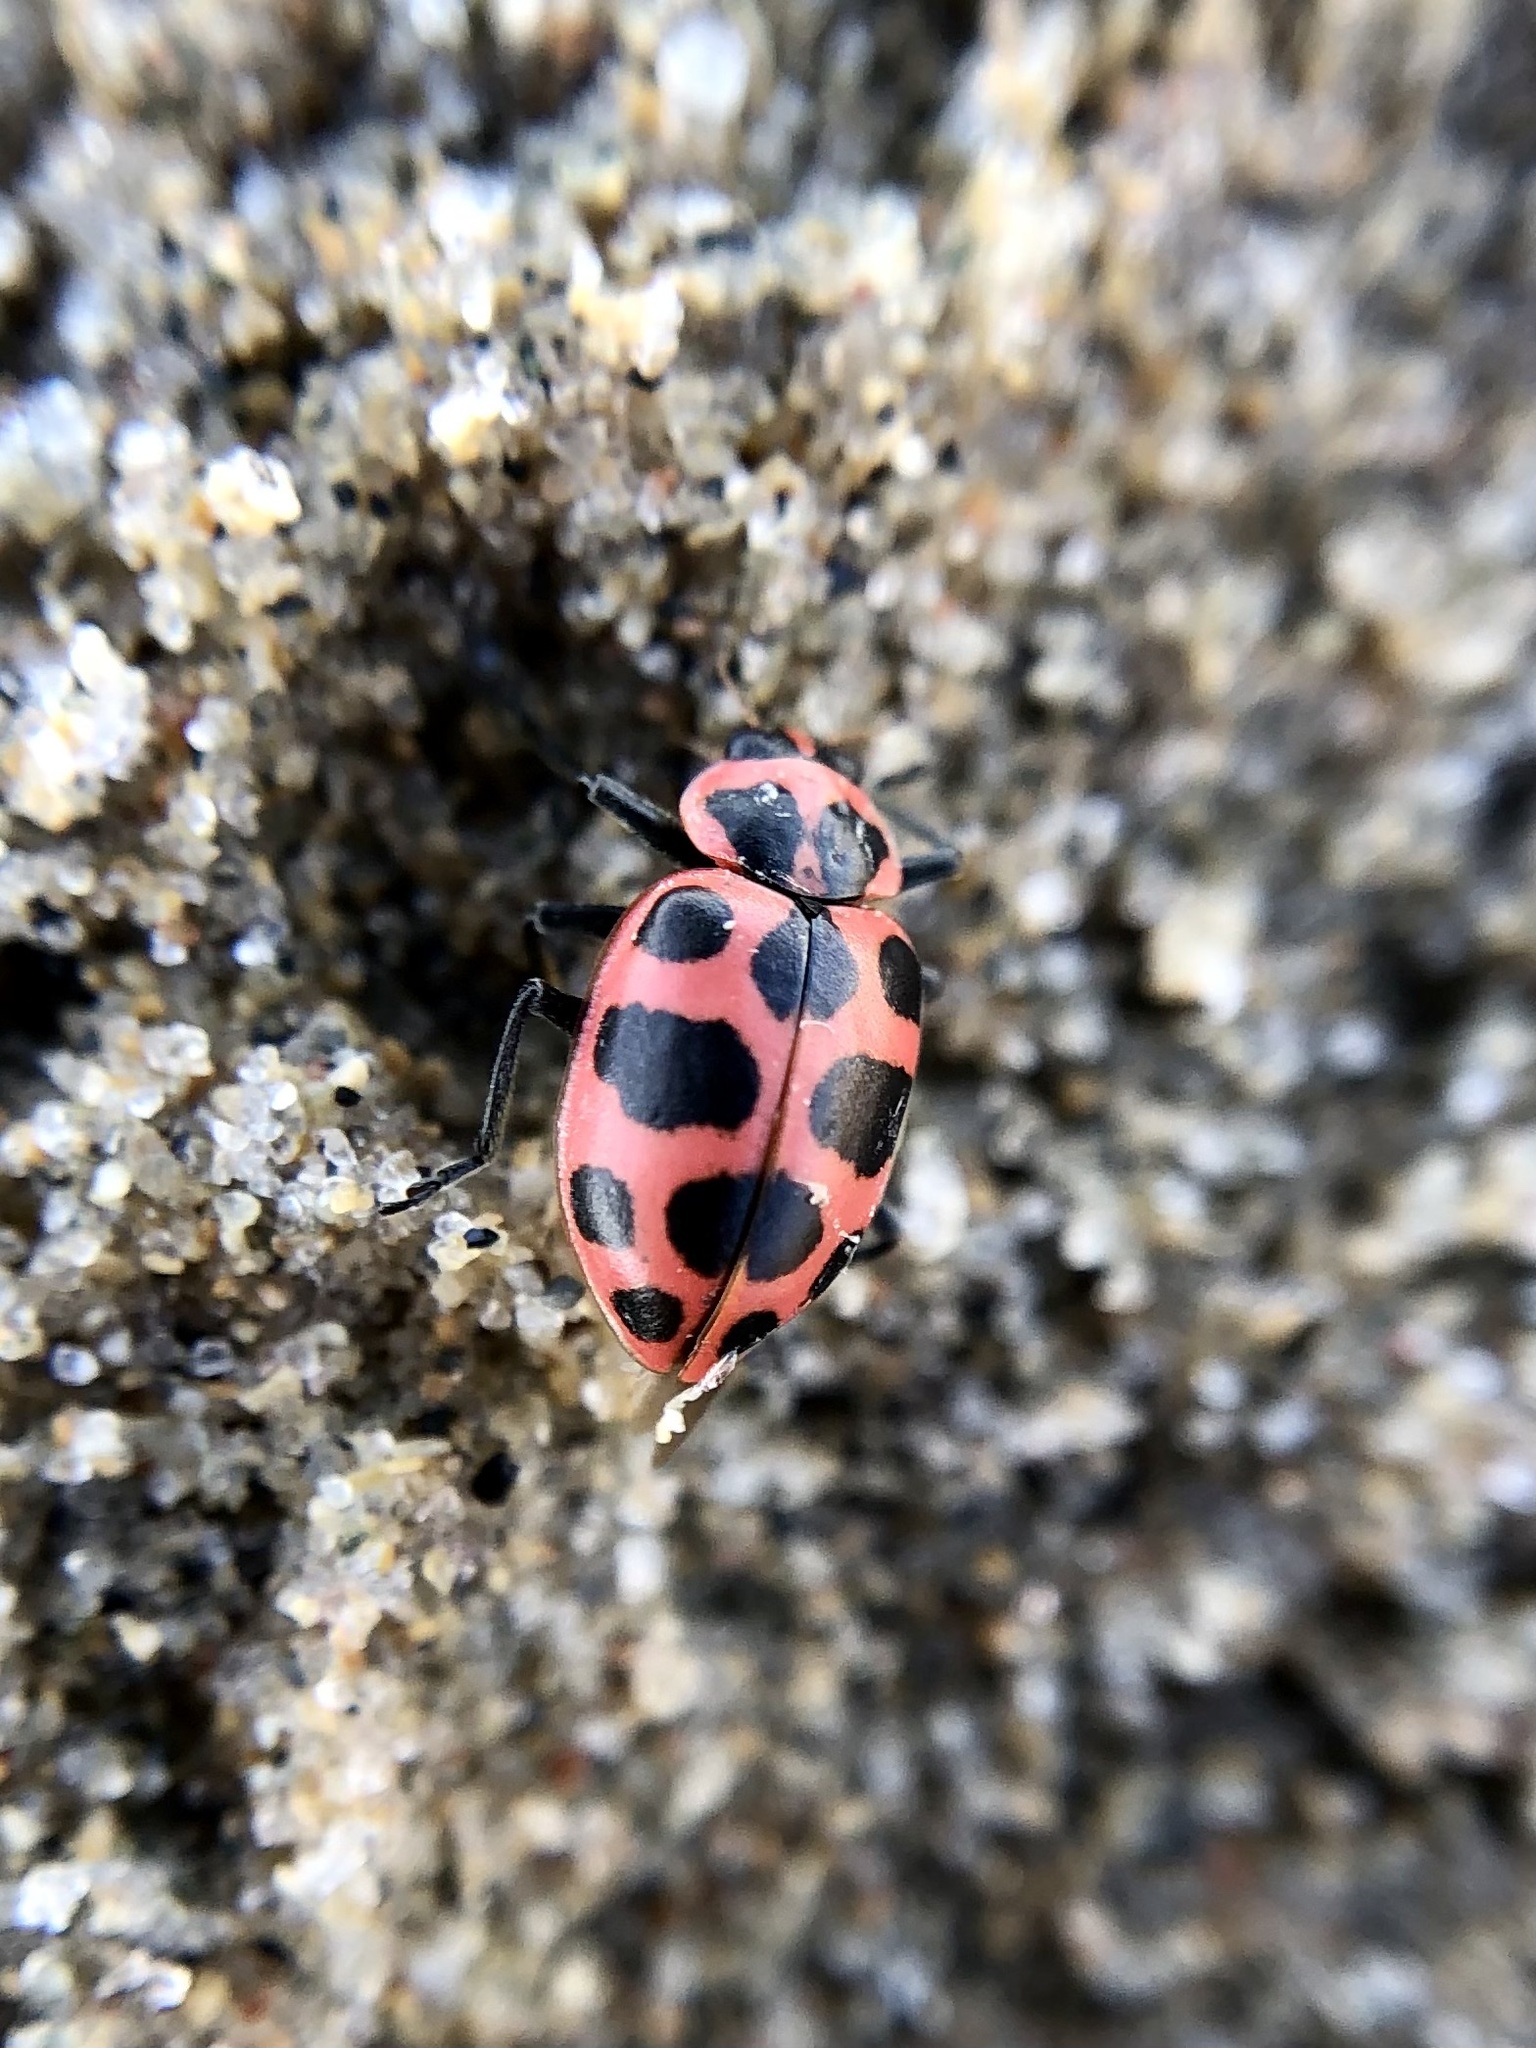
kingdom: Animalia
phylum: Arthropoda
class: Insecta
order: Coleoptera
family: Coccinellidae
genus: Coleomegilla
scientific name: Coleomegilla maculata
